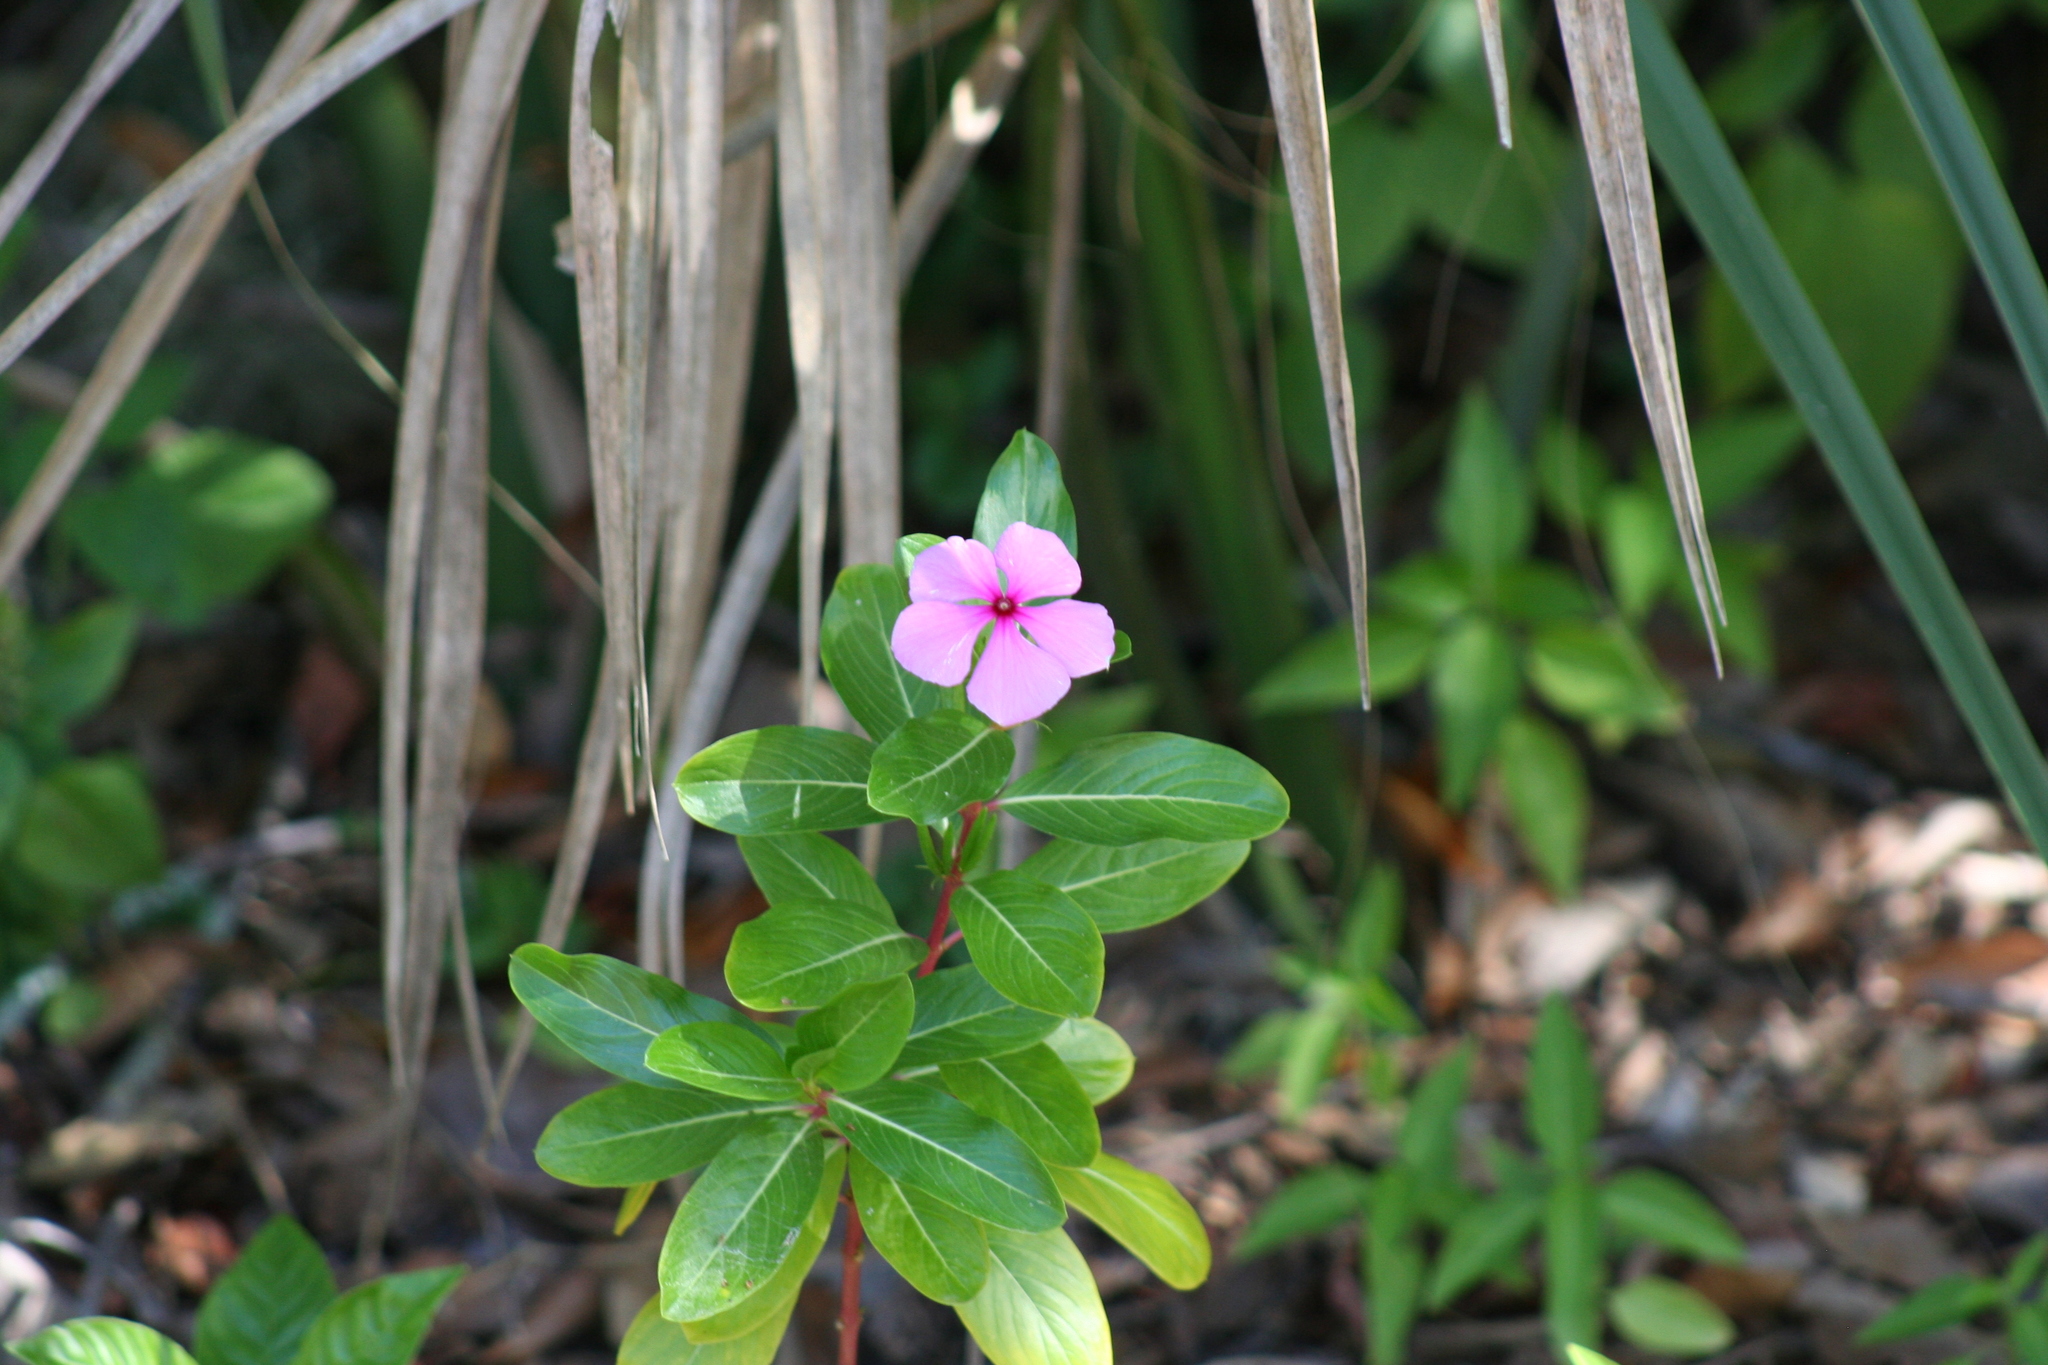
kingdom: Plantae
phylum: Tracheophyta
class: Magnoliopsida
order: Gentianales
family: Apocynaceae
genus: Catharanthus
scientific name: Catharanthus roseus
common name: Madagascar periwinkle
